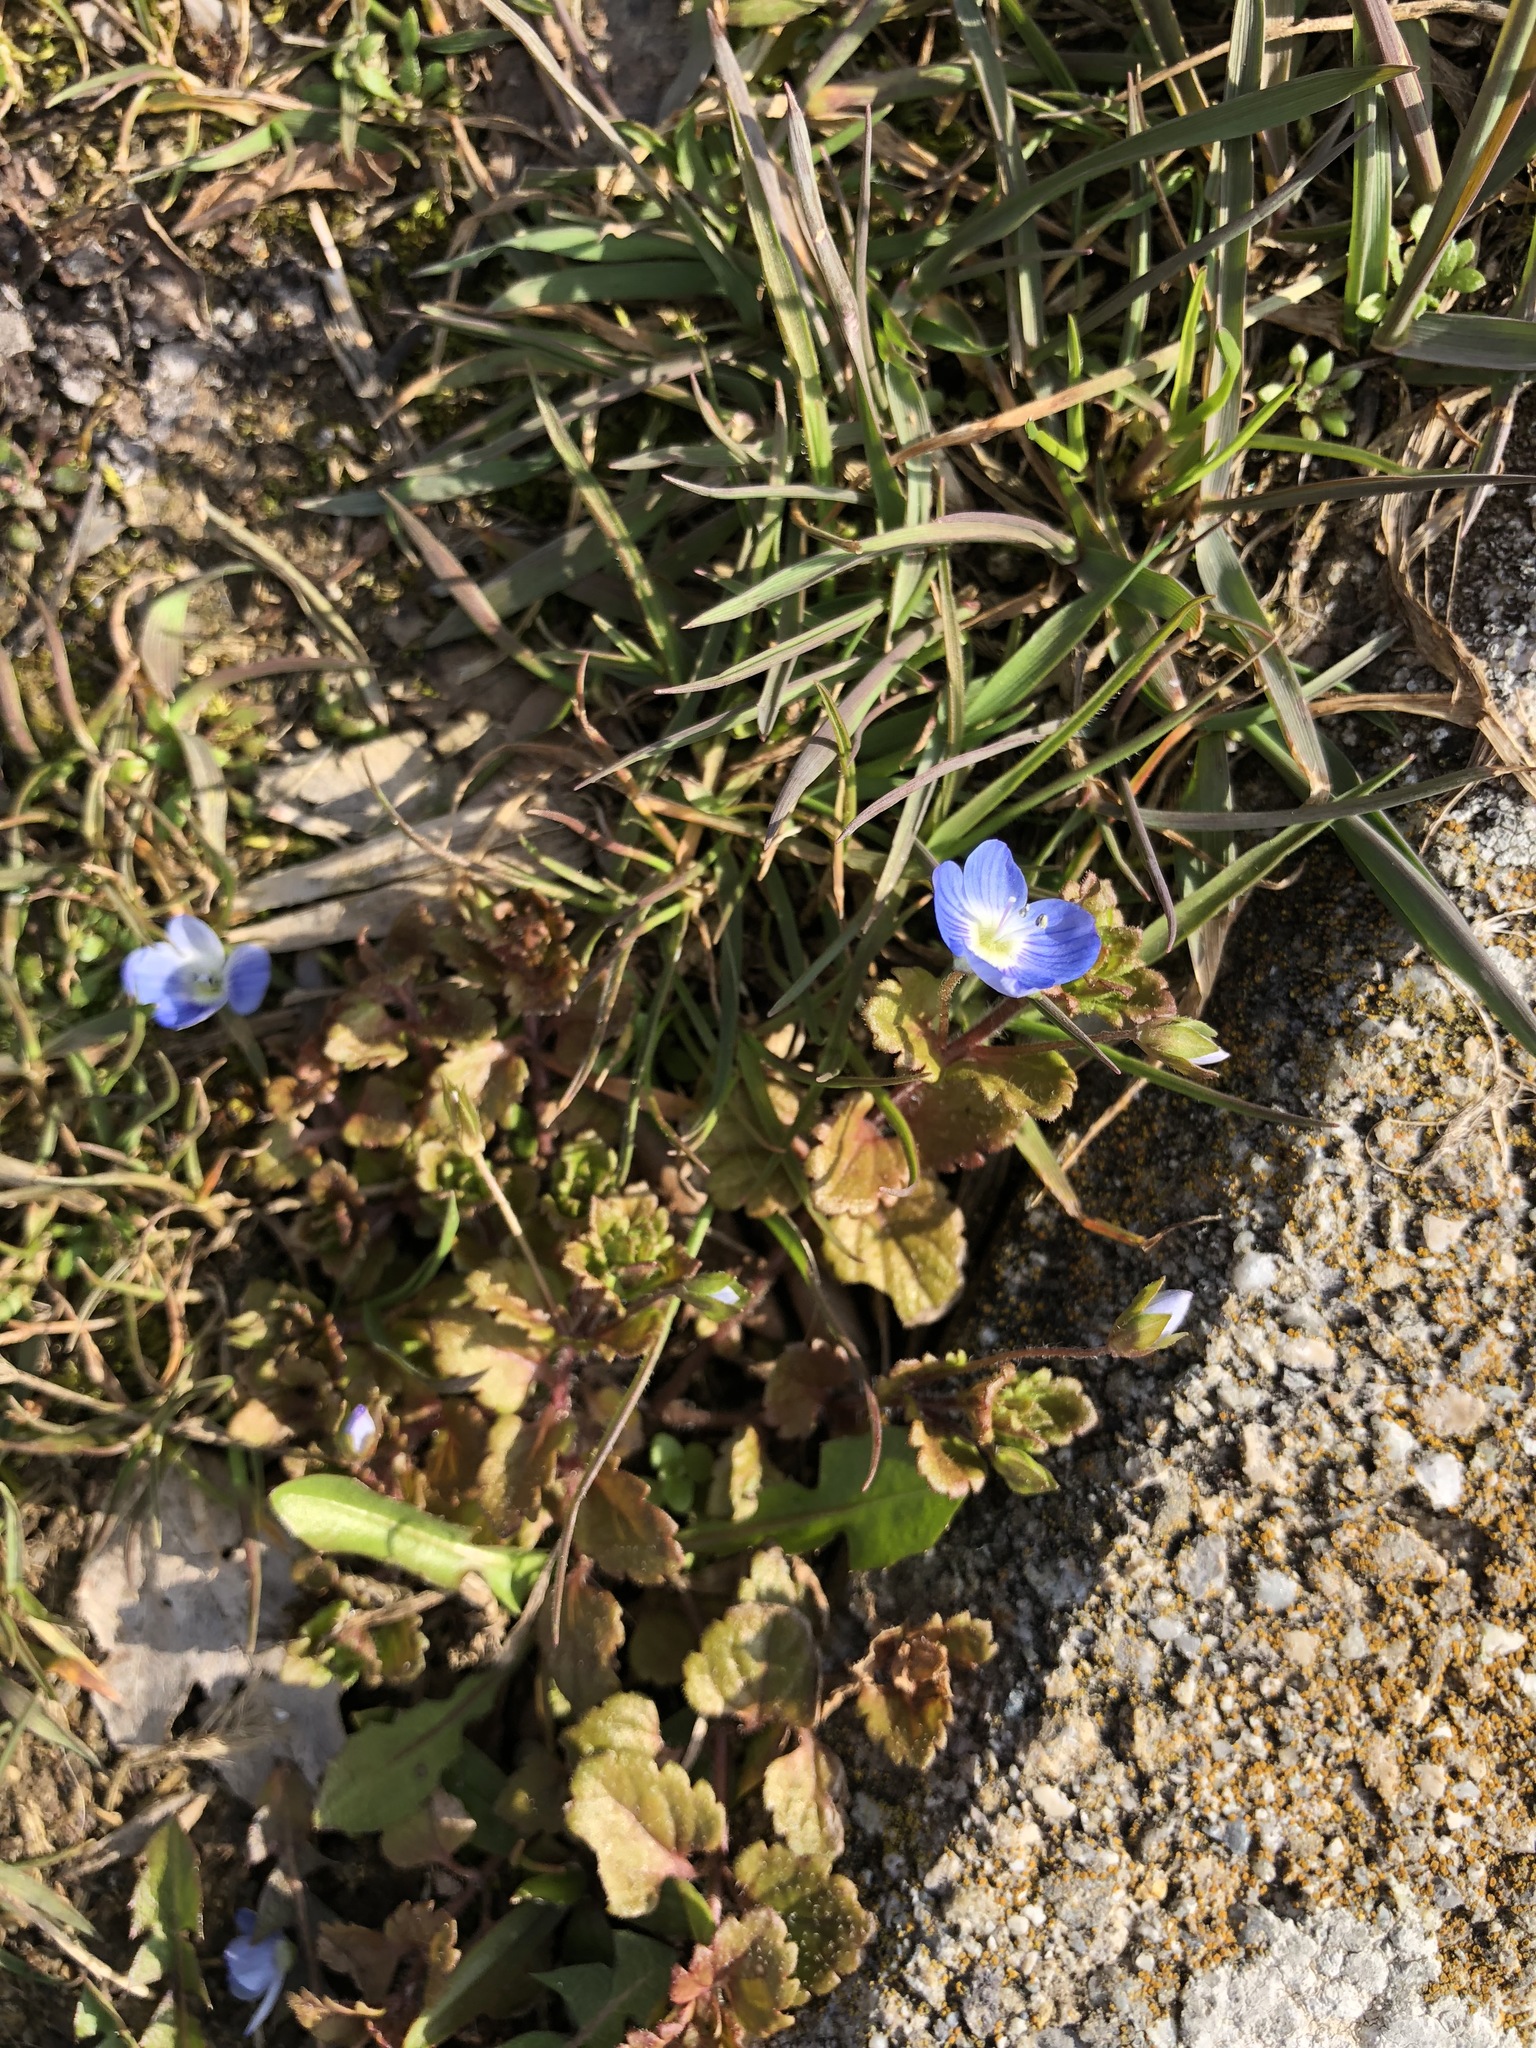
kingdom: Plantae
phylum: Tracheophyta
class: Magnoliopsida
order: Lamiales
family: Plantaginaceae
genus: Veronica
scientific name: Veronica persica
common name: Common field-speedwell
